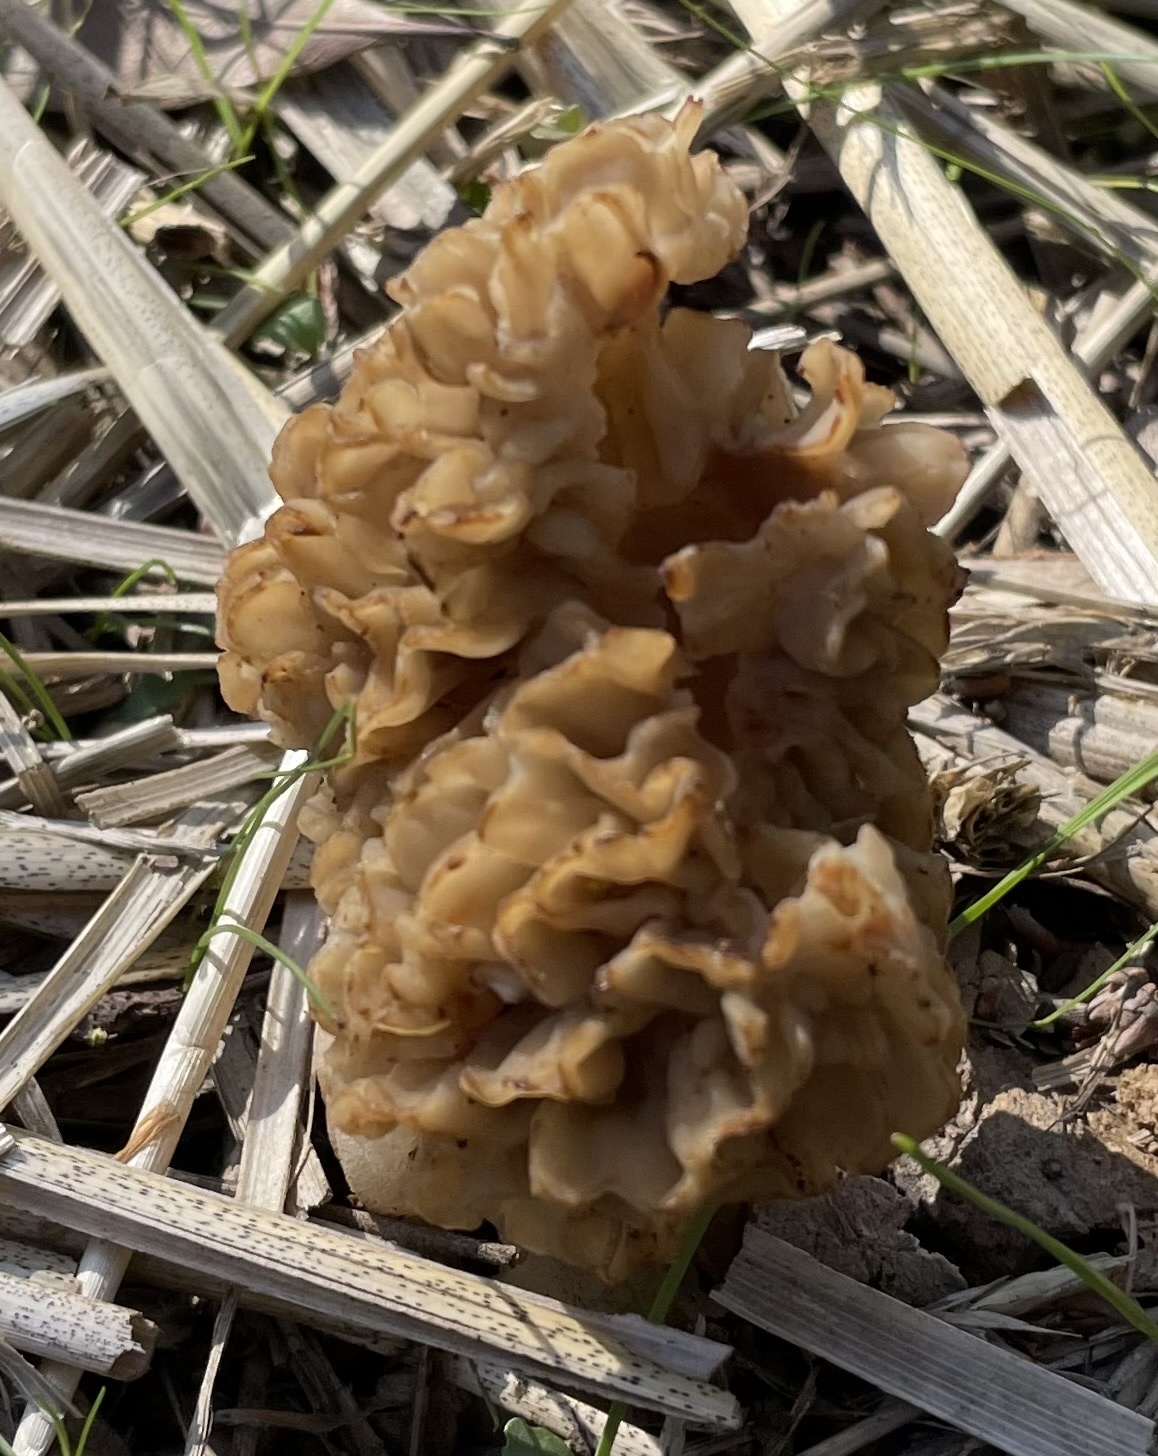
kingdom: Fungi
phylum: Ascomycota
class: Pezizomycetes
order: Pezizales
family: Morchellaceae
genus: Morchella
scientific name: Morchella americana
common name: White morel
